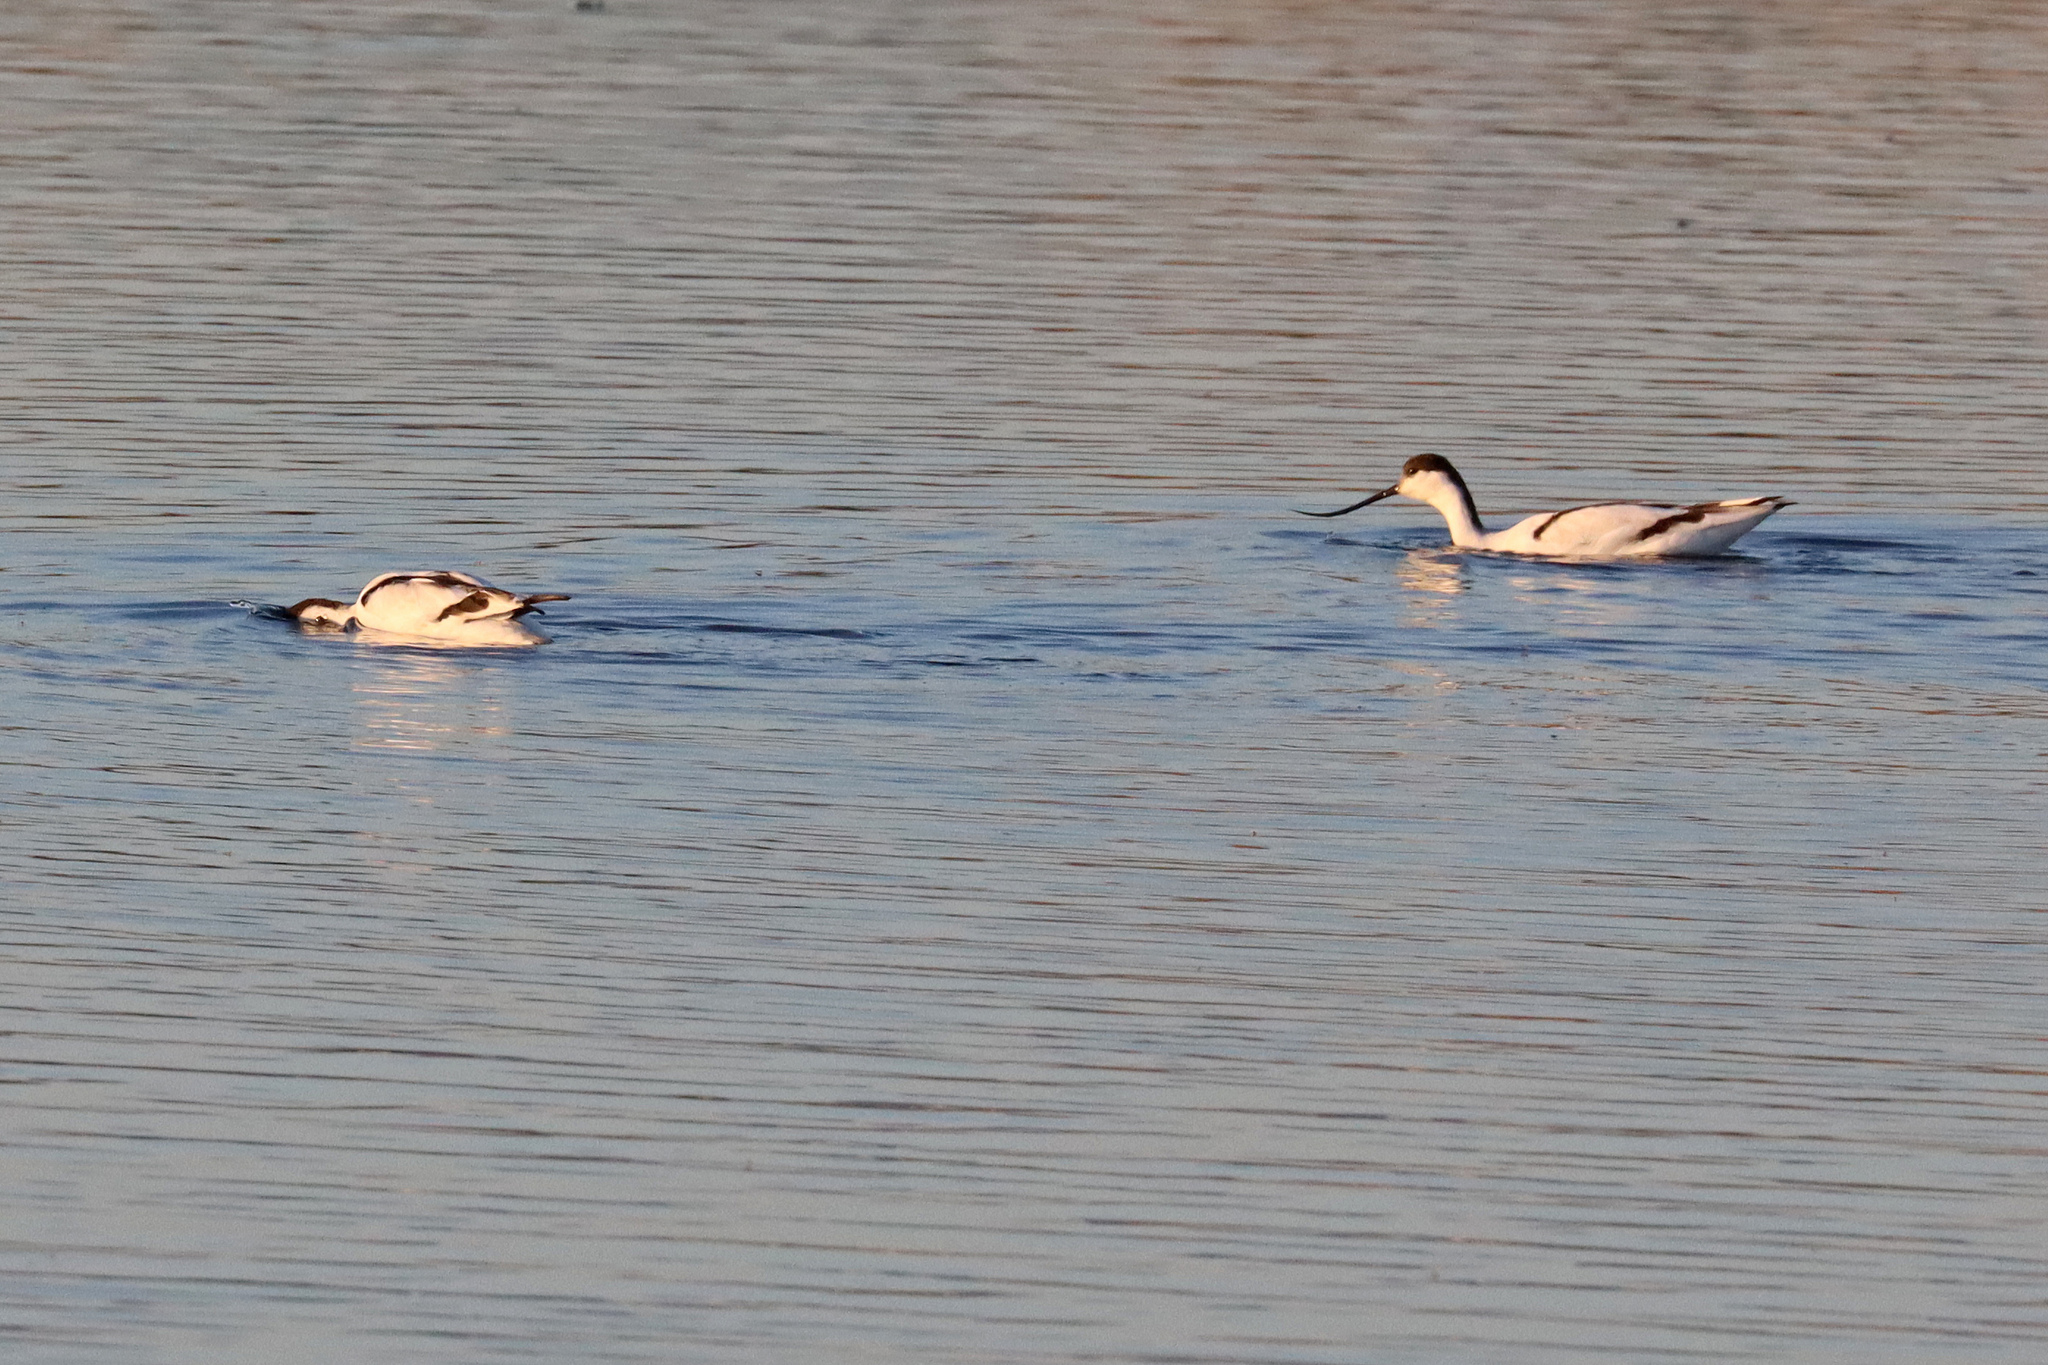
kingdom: Animalia
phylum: Chordata
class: Aves
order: Charadriiformes
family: Recurvirostridae
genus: Recurvirostra
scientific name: Recurvirostra avosetta
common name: Pied avocet
